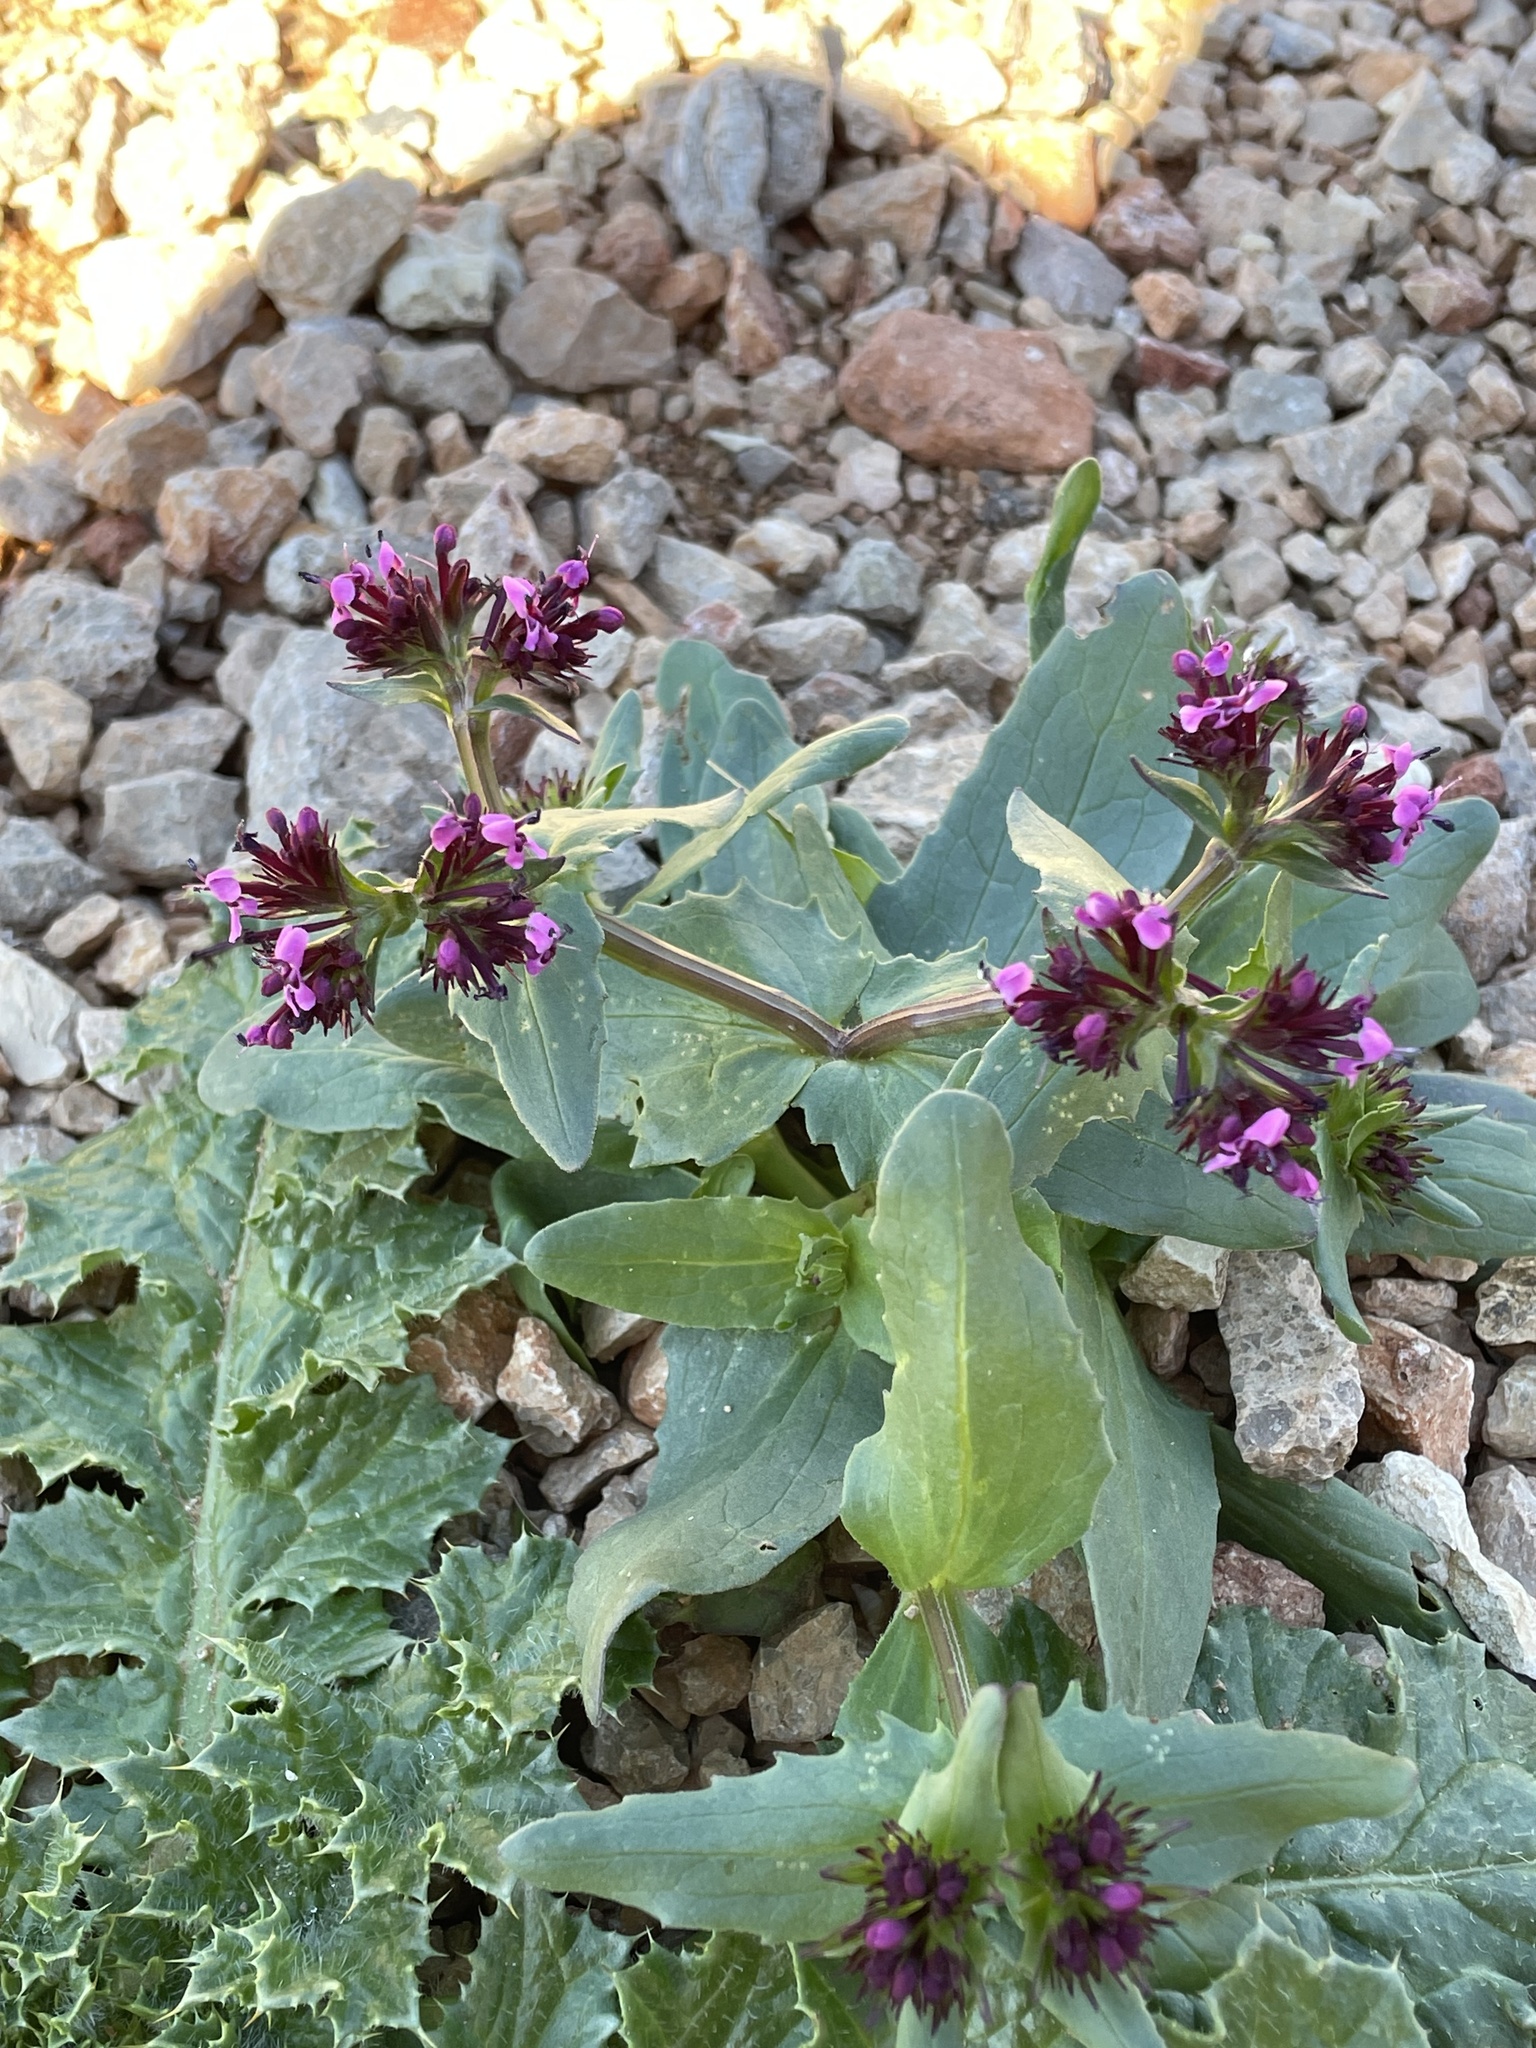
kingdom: Plantae
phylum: Tracheophyta
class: Magnoliopsida
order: Dipsacales
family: Caprifoliaceae
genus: Fedia
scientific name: Fedia cornucopiae
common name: Horn-of-plenty
